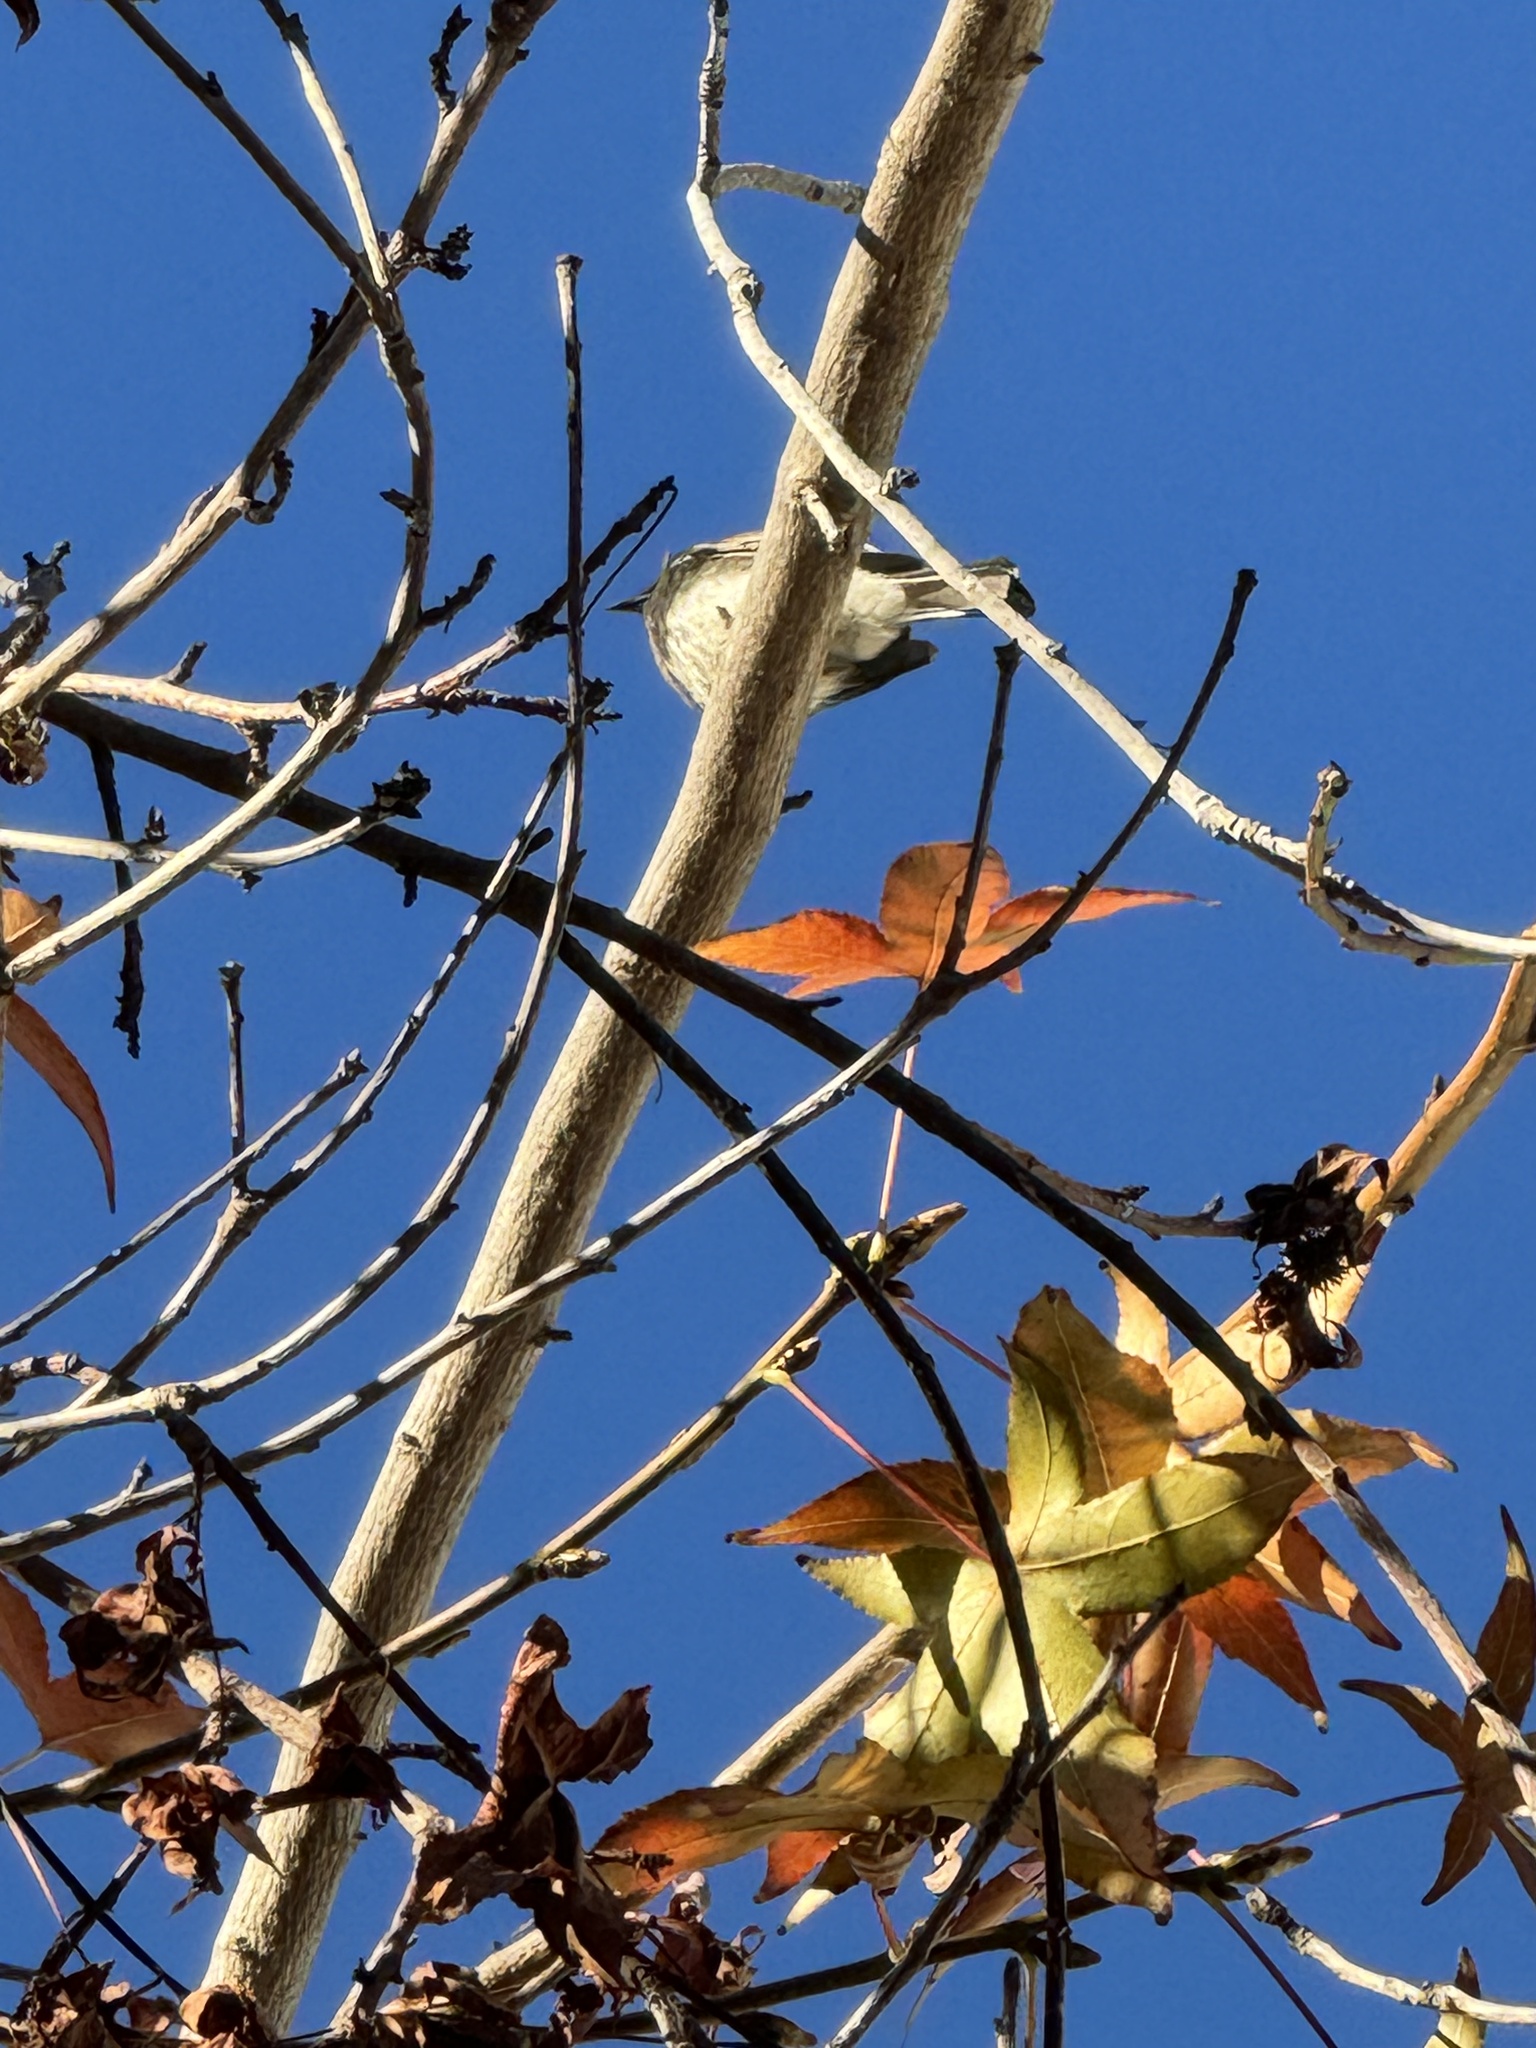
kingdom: Animalia
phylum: Chordata
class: Aves
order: Passeriformes
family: Tyrannidae
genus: Sayornis
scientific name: Sayornis nigricans
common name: Black phoebe
